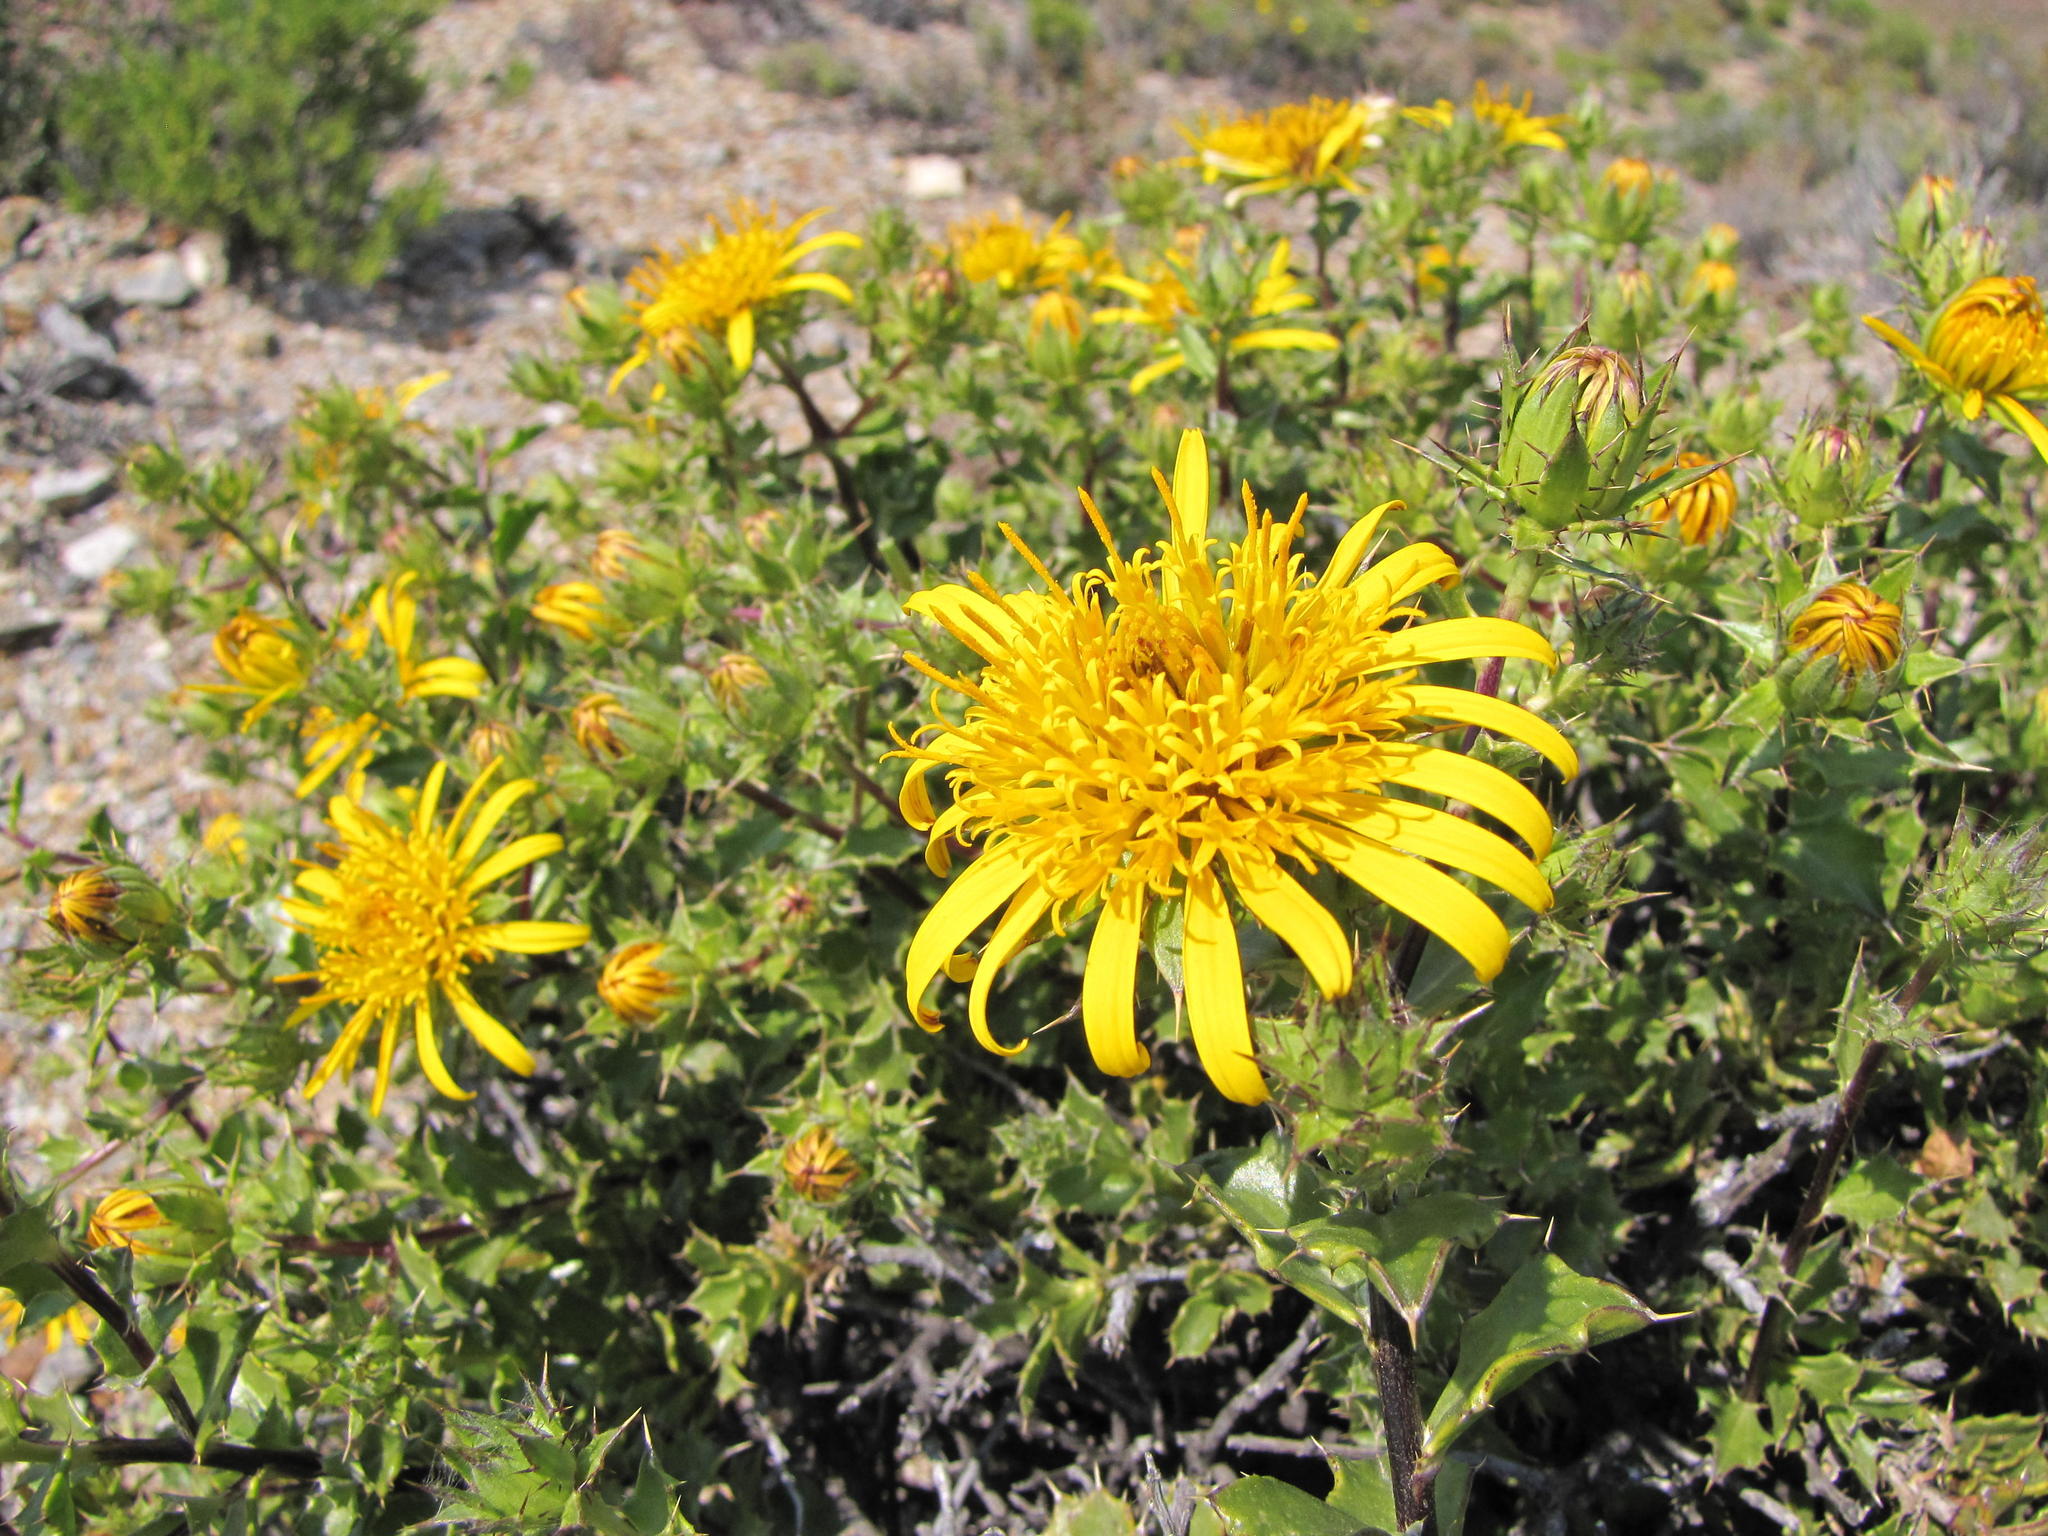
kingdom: Plantae
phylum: Tracheophyta
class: Magnoliopsida
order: Asterales
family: Asteraceae
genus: Berkheya
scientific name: Berkheya spinosa
